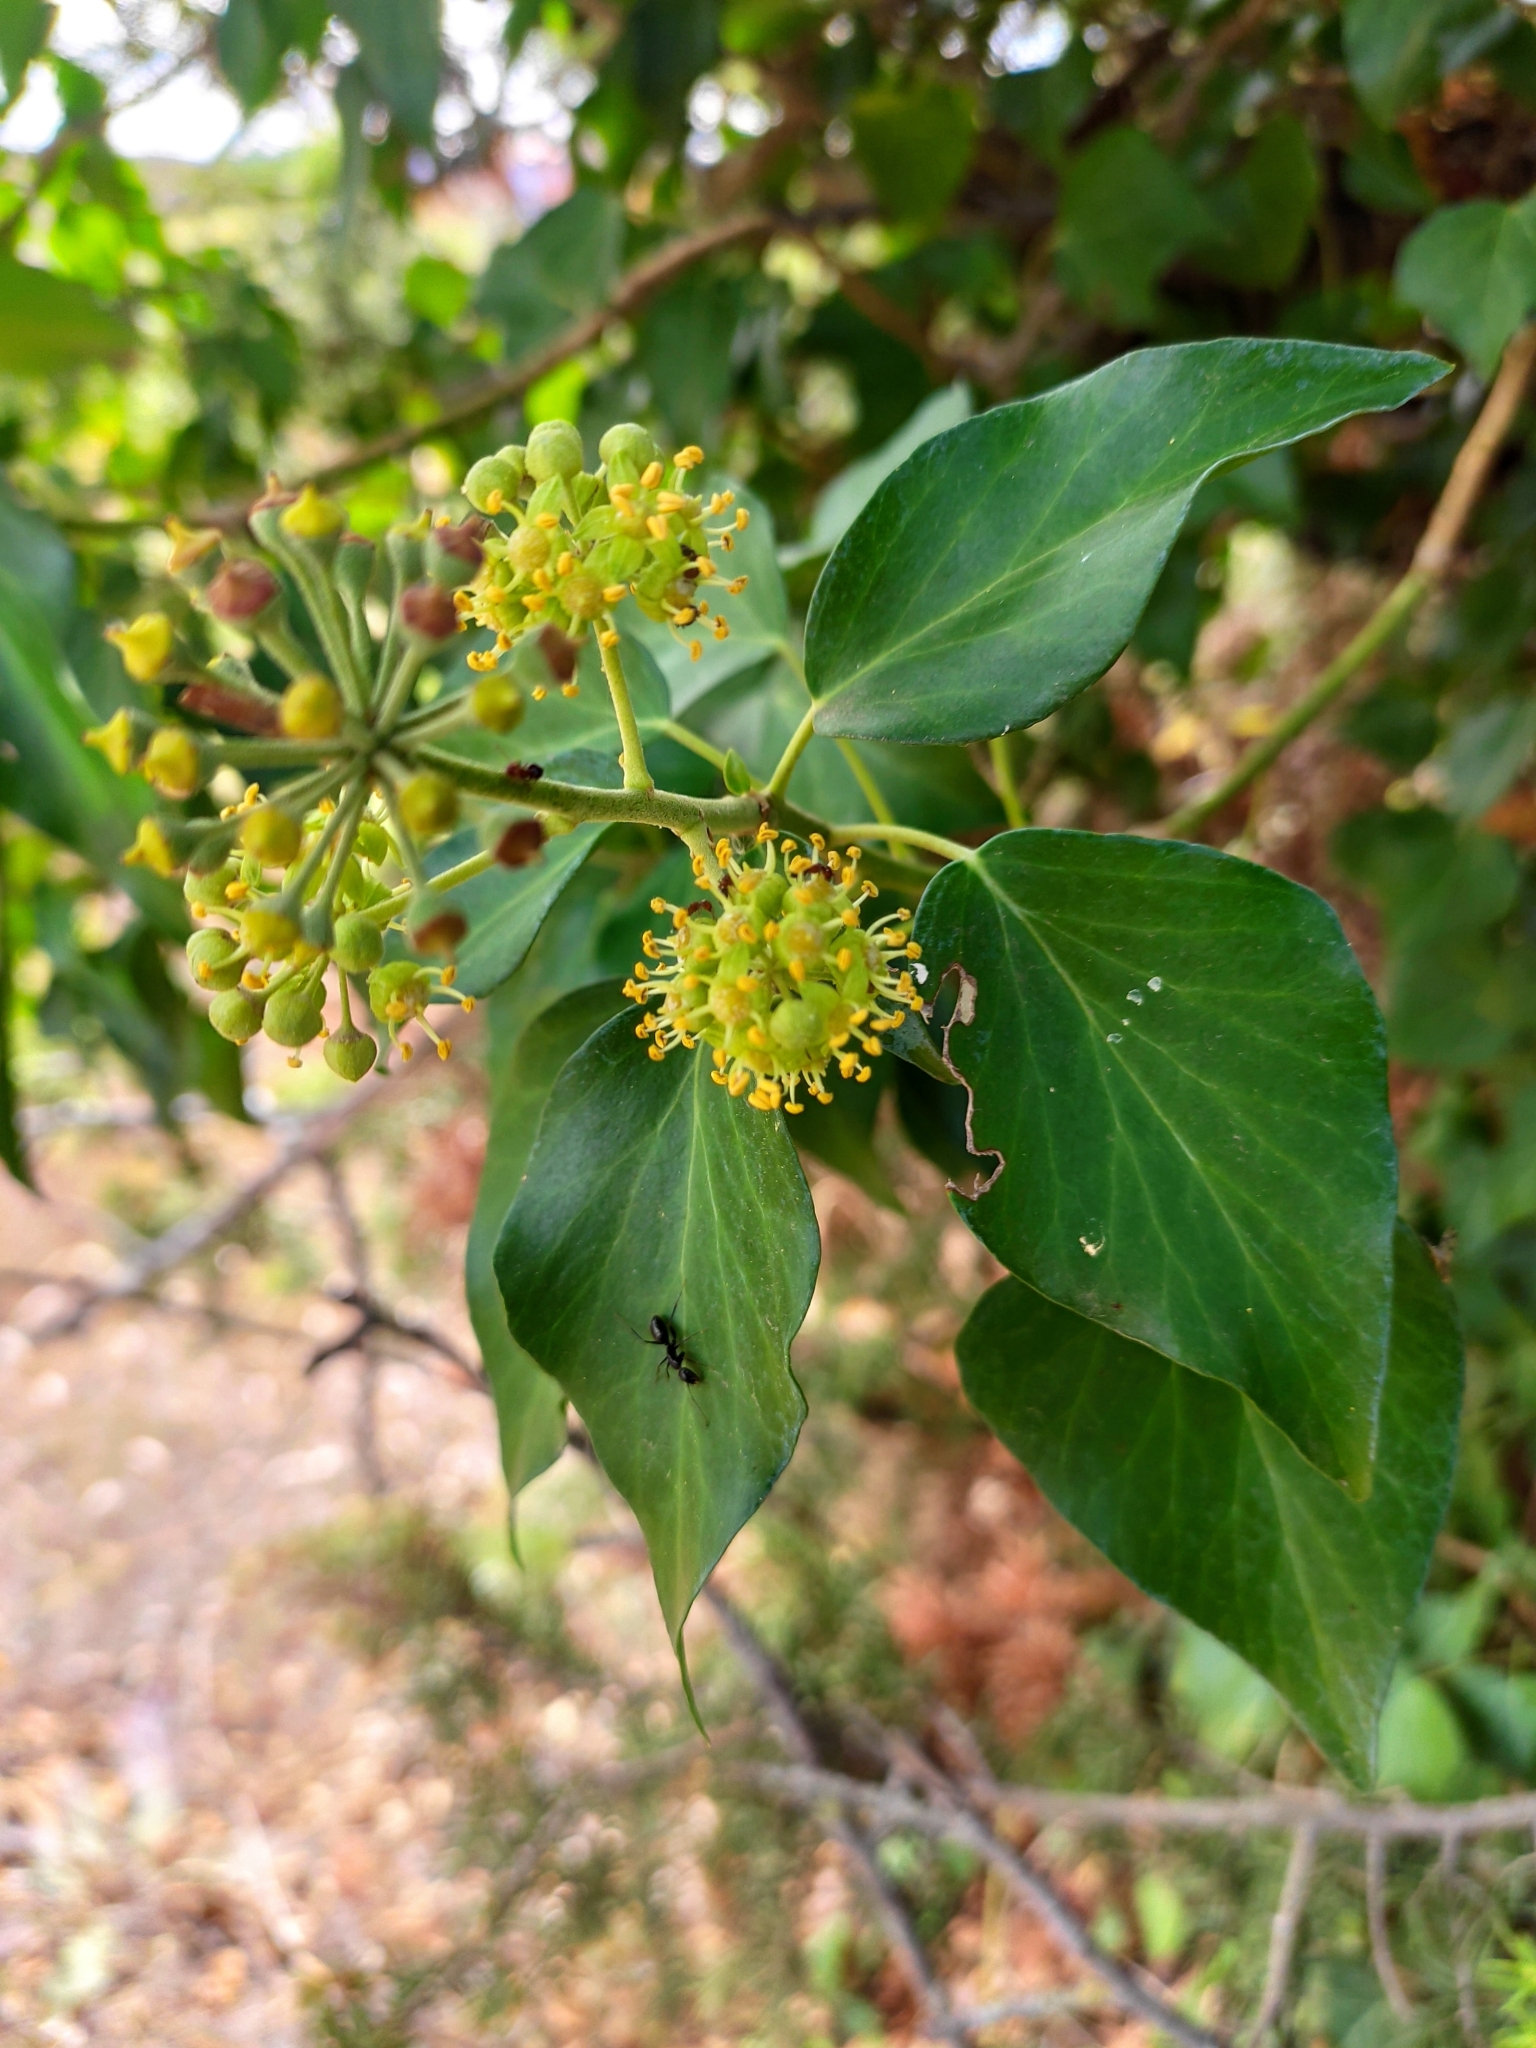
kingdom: Plantae
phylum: Tracheophyta
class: Magnoliopsida
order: Apiales
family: Araliaceae
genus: Hedera
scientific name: Hedera helix
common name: Ivy
